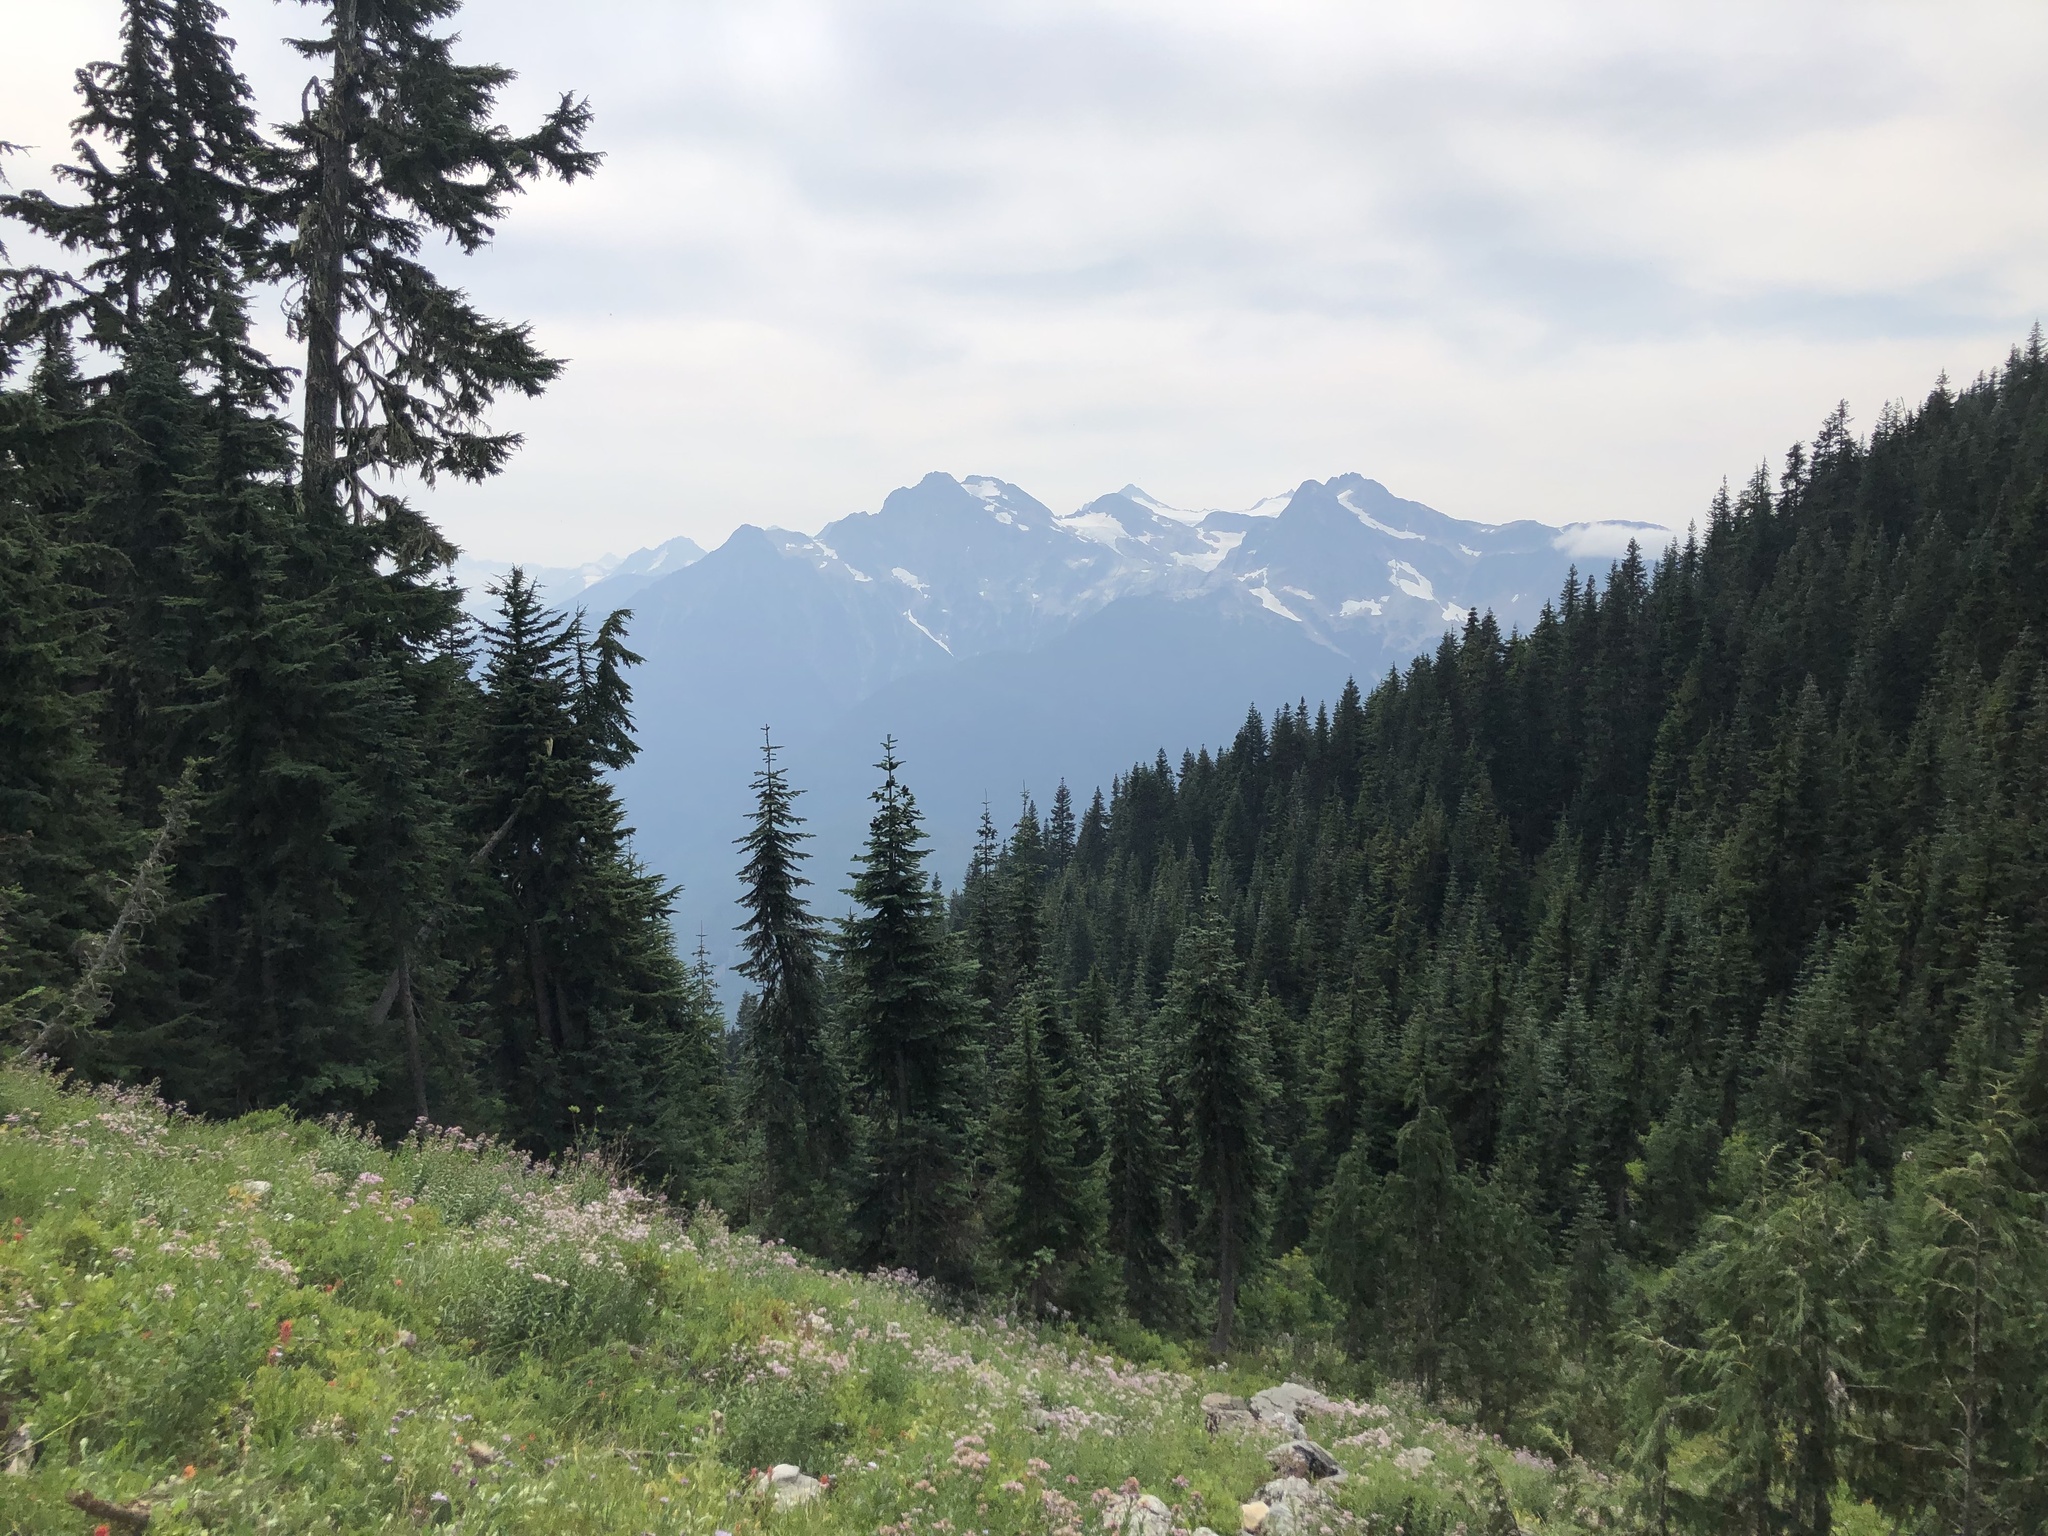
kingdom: Plantae
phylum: Tracheophyta
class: Pinopsida
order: Pinales
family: Pinaceae
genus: Abies
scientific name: Abies amabilis
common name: Pacific silver fir
